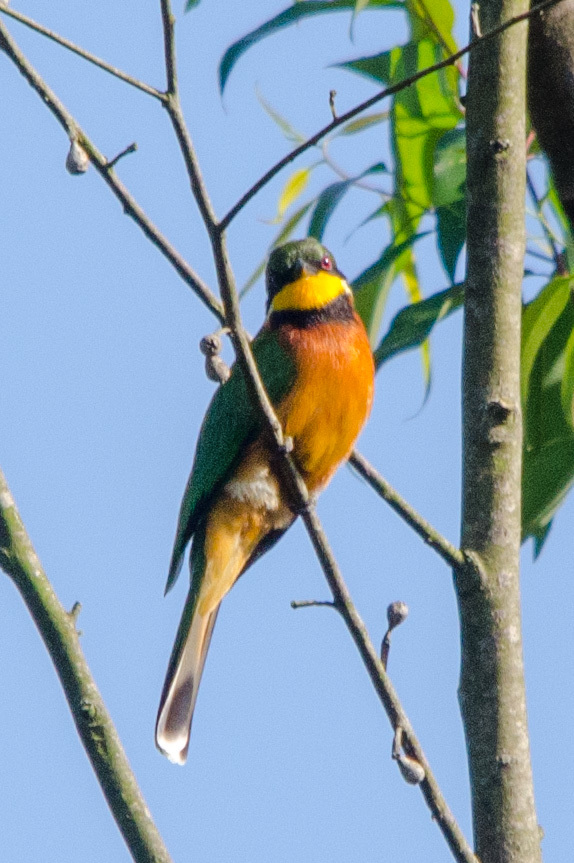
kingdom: Animalia
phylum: Chordata
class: Aves
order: Coraciiformes
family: Meropidae
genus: Merops
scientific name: Merops oreobates
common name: Cinnamon-chested bee-eater
